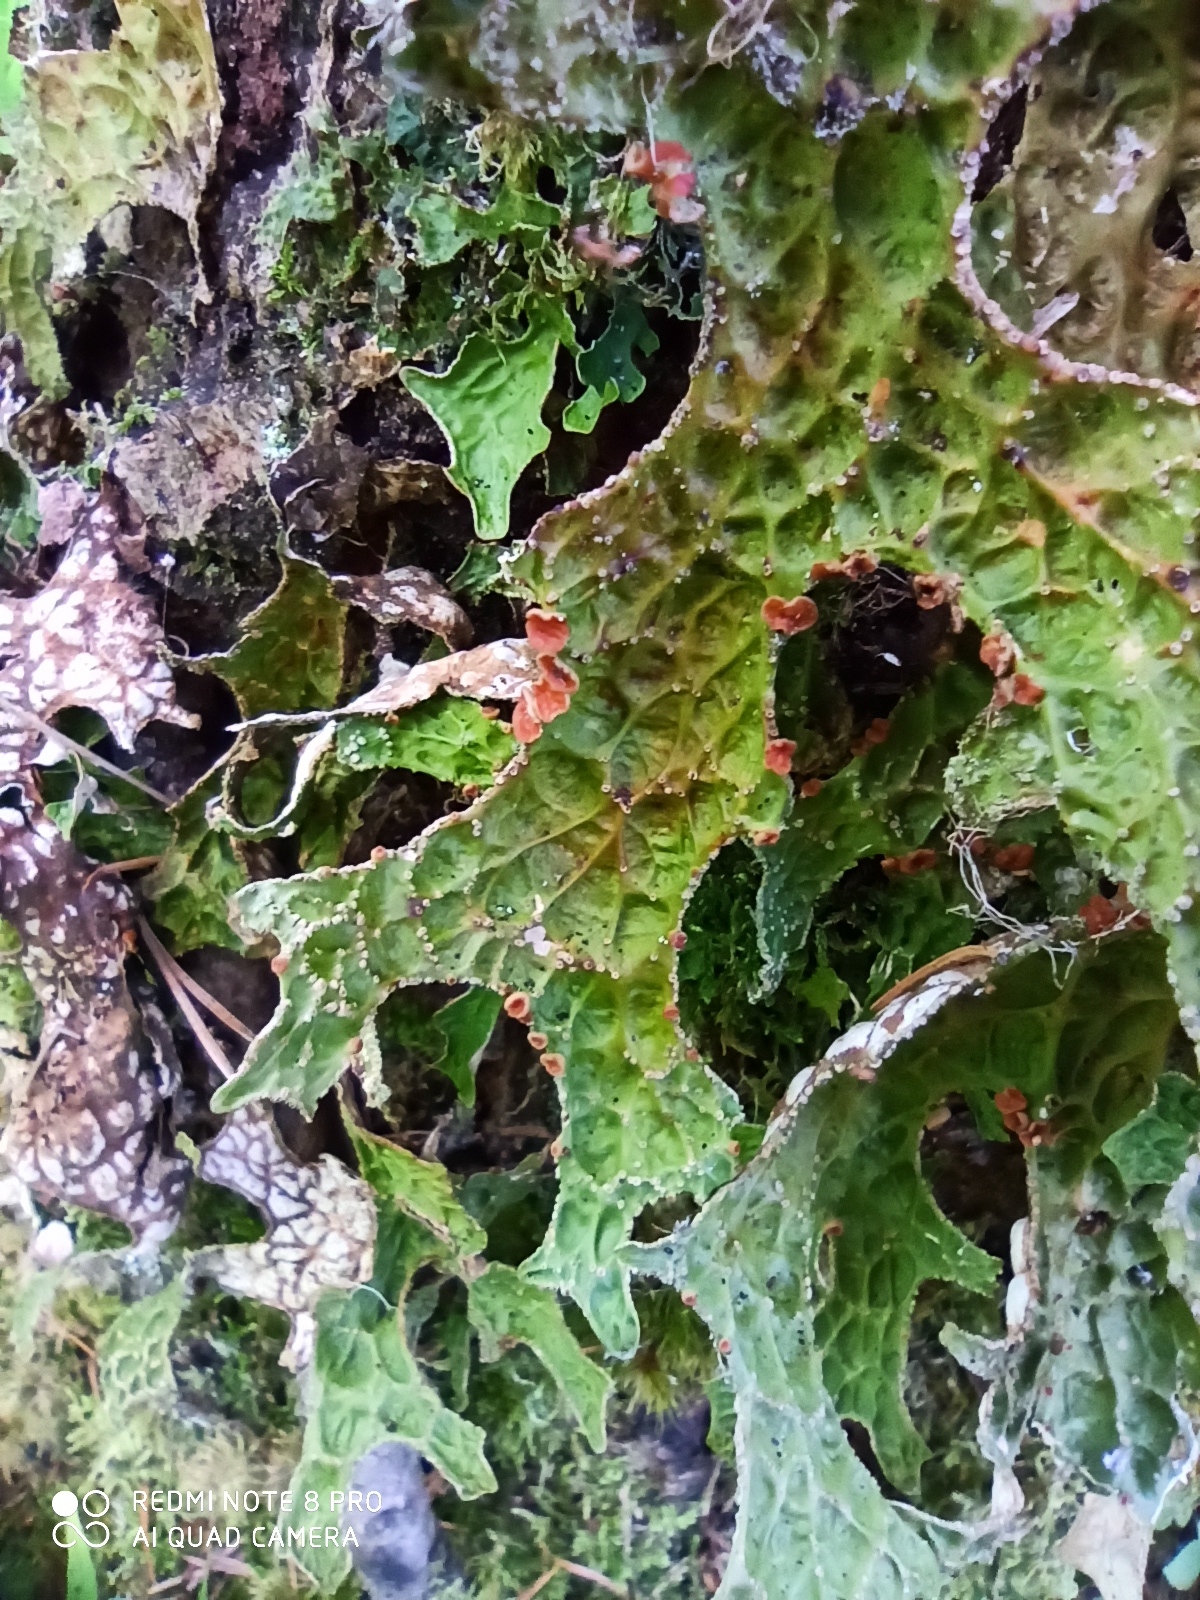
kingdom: Fungi
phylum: Ascomycota
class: Lecanoromycetes
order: Peltigerales
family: Lobariaceae
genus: Lobaria
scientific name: Lobaria pulmonaria
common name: Lungwort
